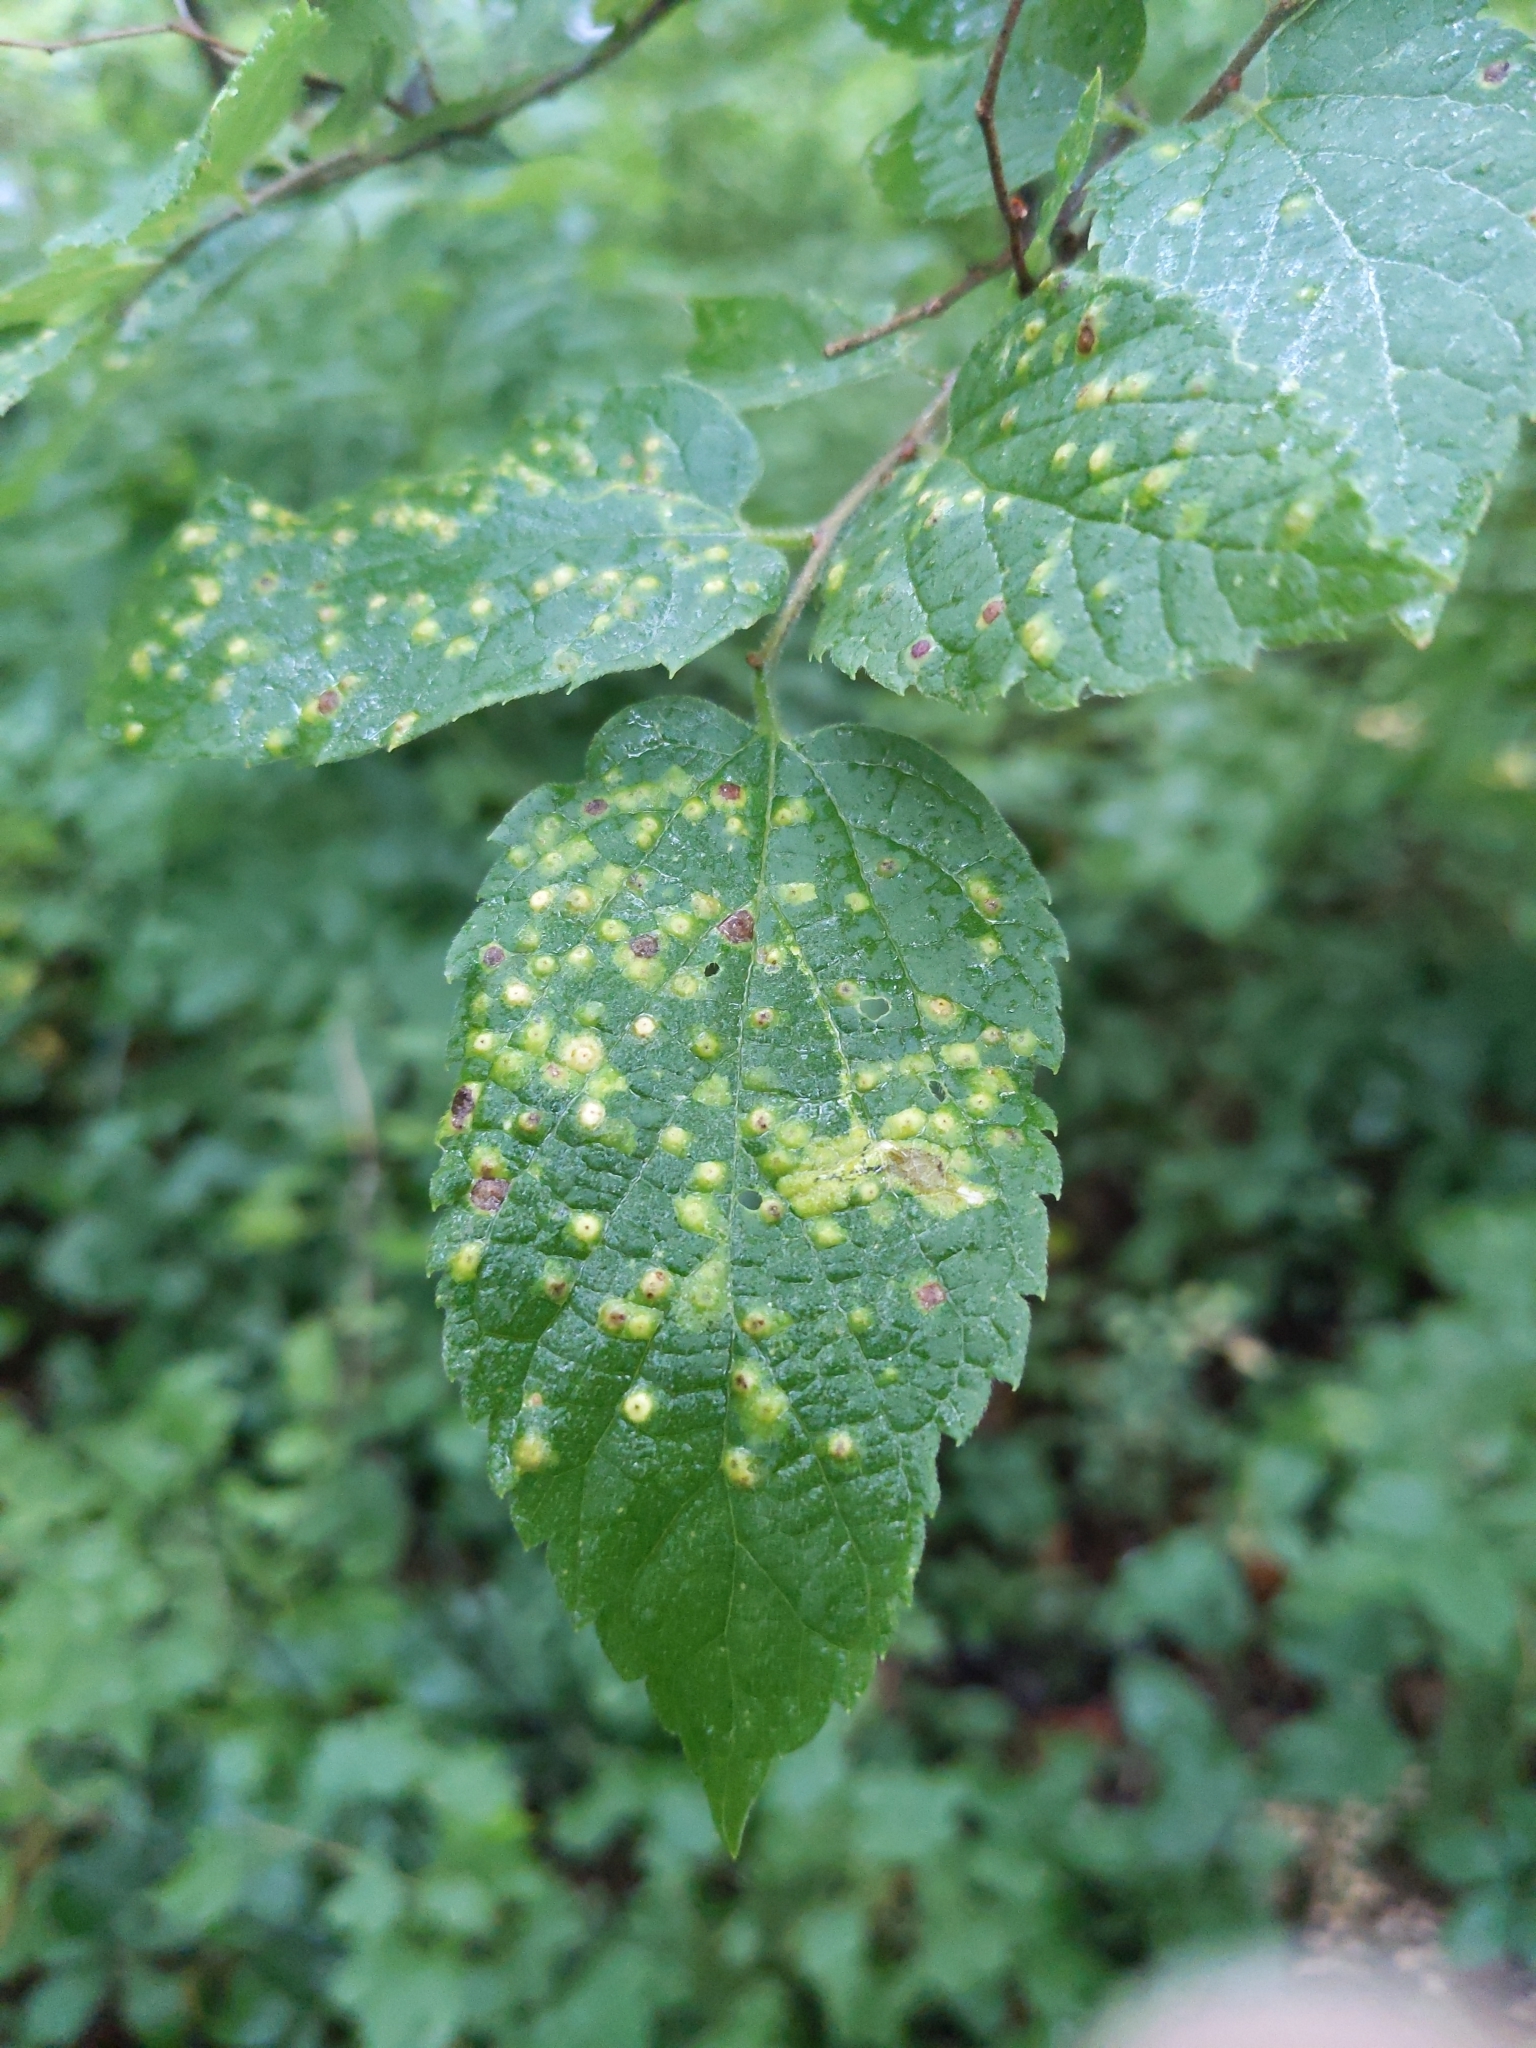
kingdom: Animalia
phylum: Arthropoda
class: Insecta
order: Hemiptera
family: Aphalaridae
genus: Pachypsylla
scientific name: Pachypsylla celtidisvesicula
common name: Hackberry blister gall psyllid
